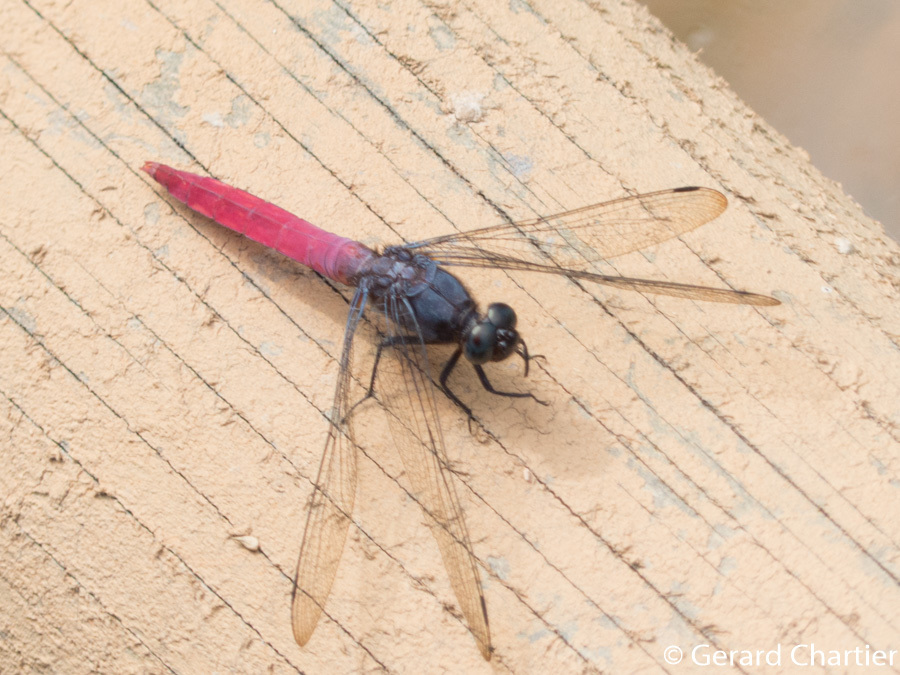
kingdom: Animalia
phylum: Arthropoda
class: Insecta
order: Odonata
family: Libellulidae
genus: Orthetrum
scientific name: Orthetrum pruinosum
